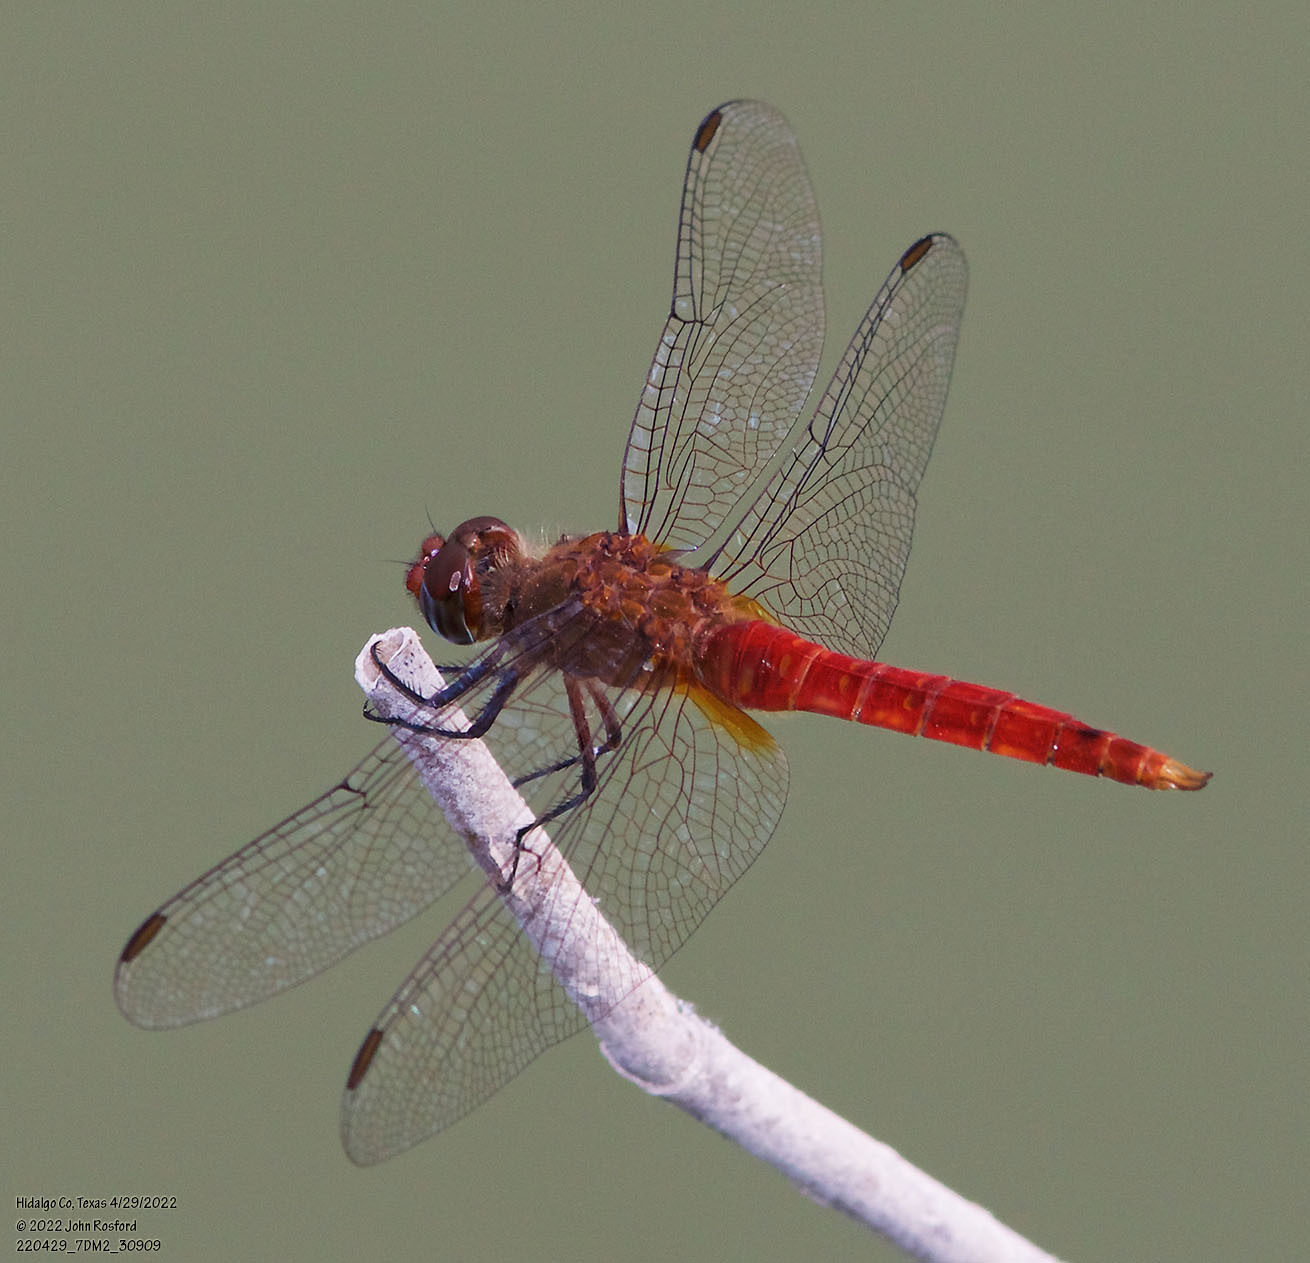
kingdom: Animalia
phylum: Arthropoda
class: Insecta
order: Odonata
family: Libellulidae
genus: Brachymesia
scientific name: Brachymesia furcata
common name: Red-taled pennant
